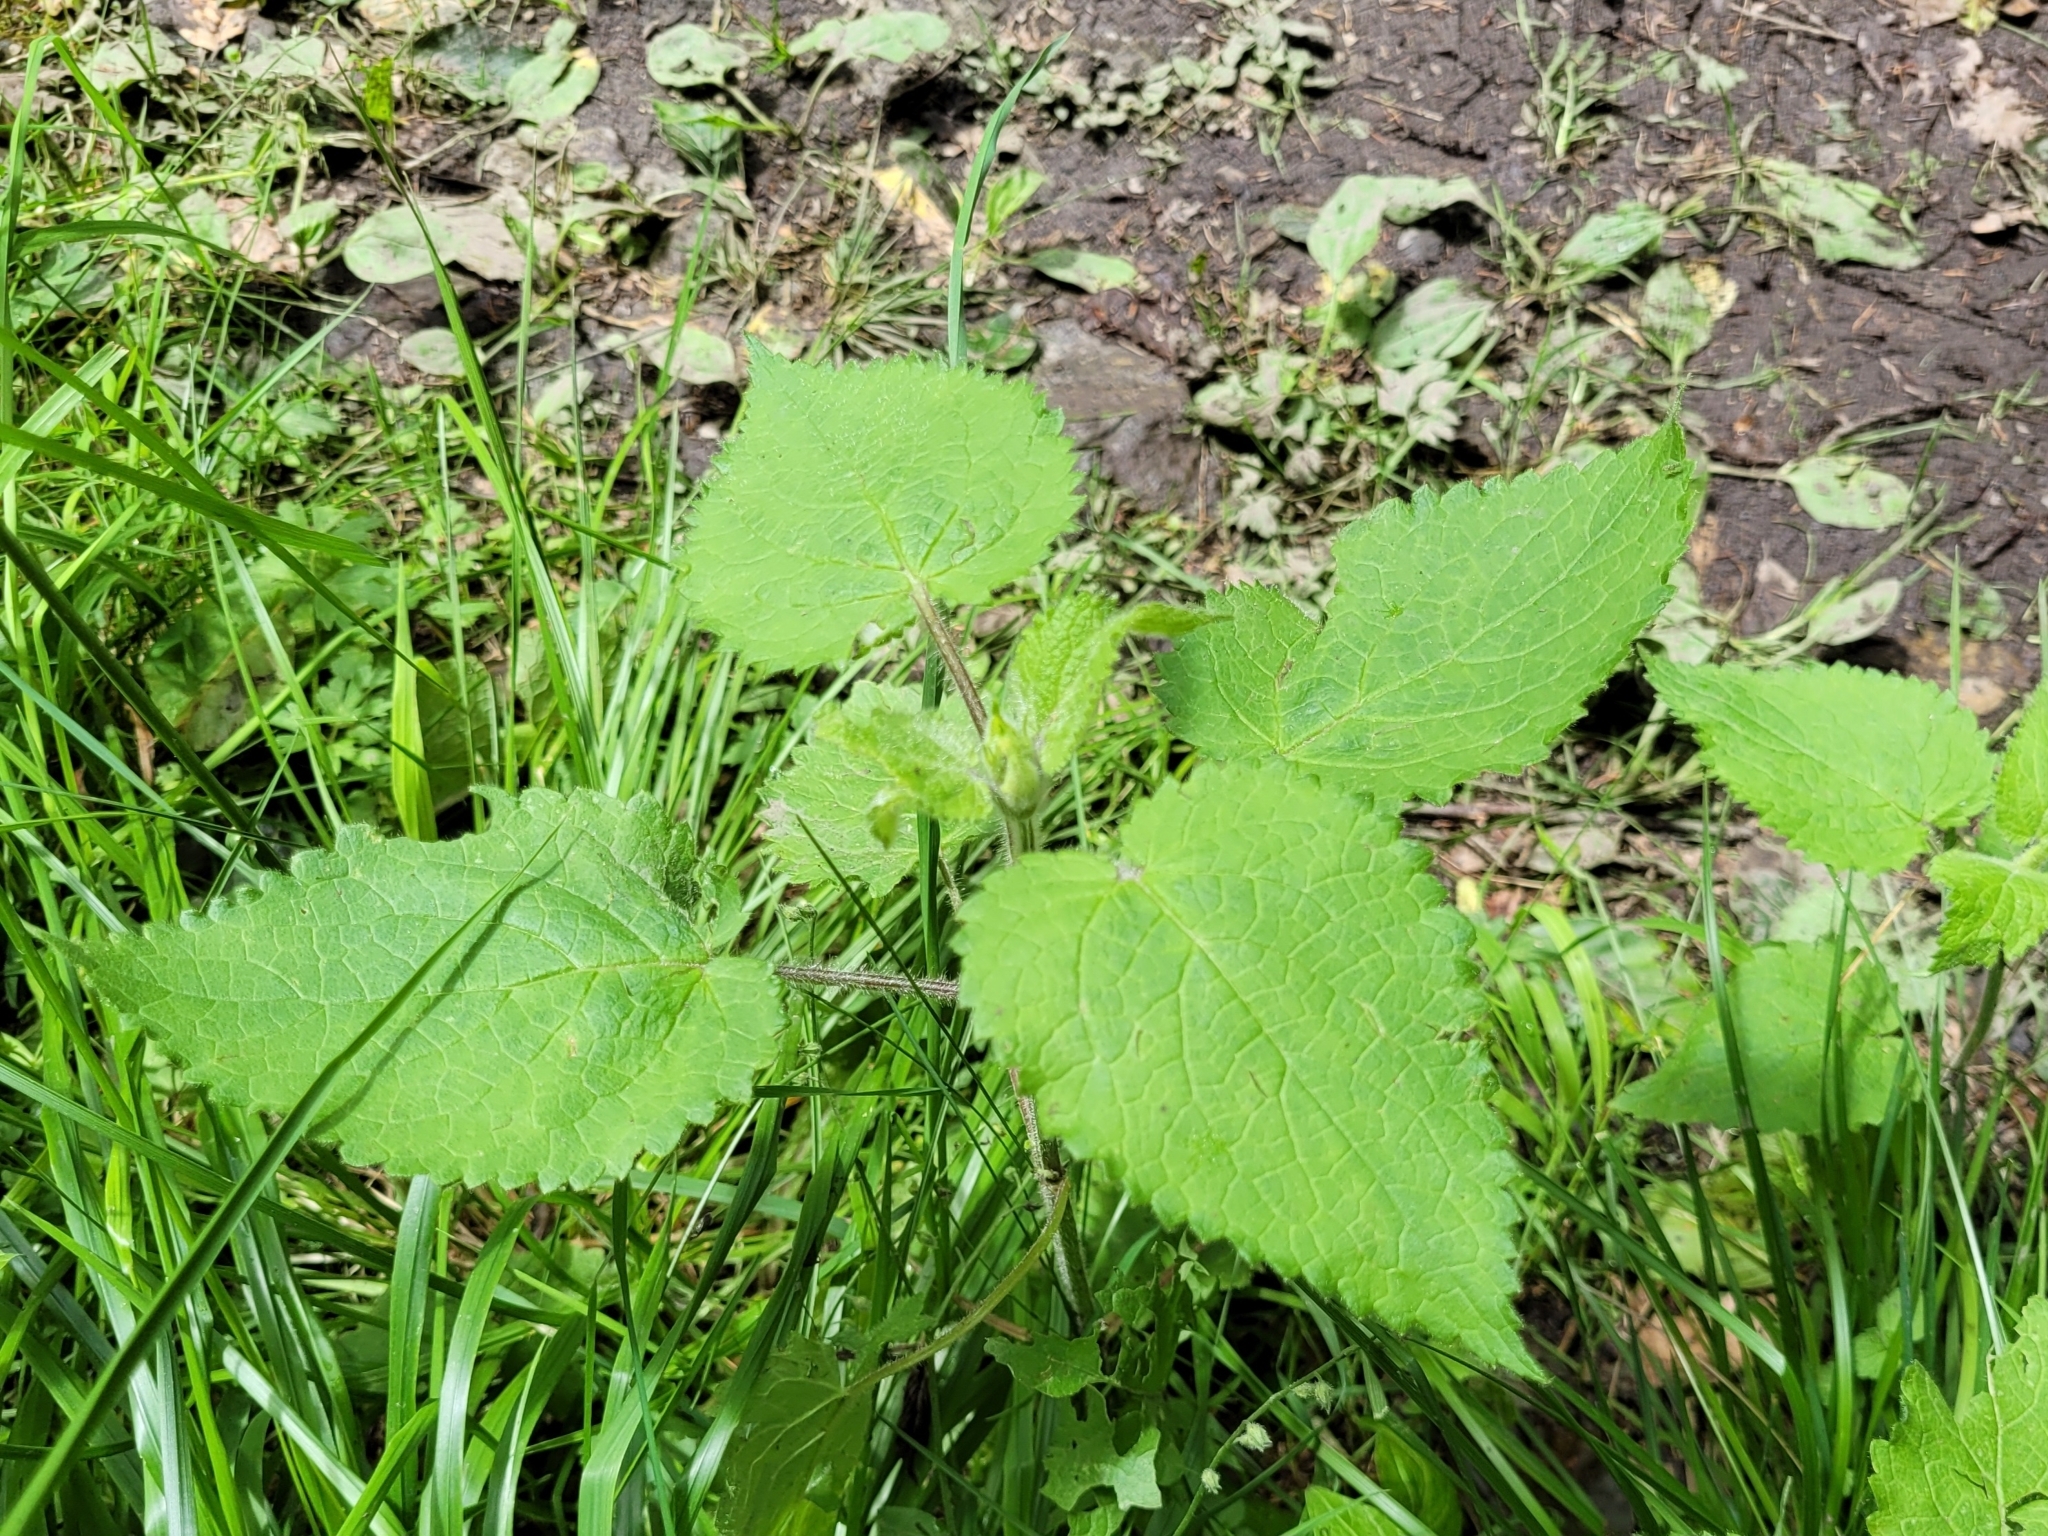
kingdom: Plantae
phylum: Tracheophyta
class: Magnoliopsida
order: Lamiales
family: Lamiaceae
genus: Stachys
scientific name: Stachys sylvatica
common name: Hedge woundwort
